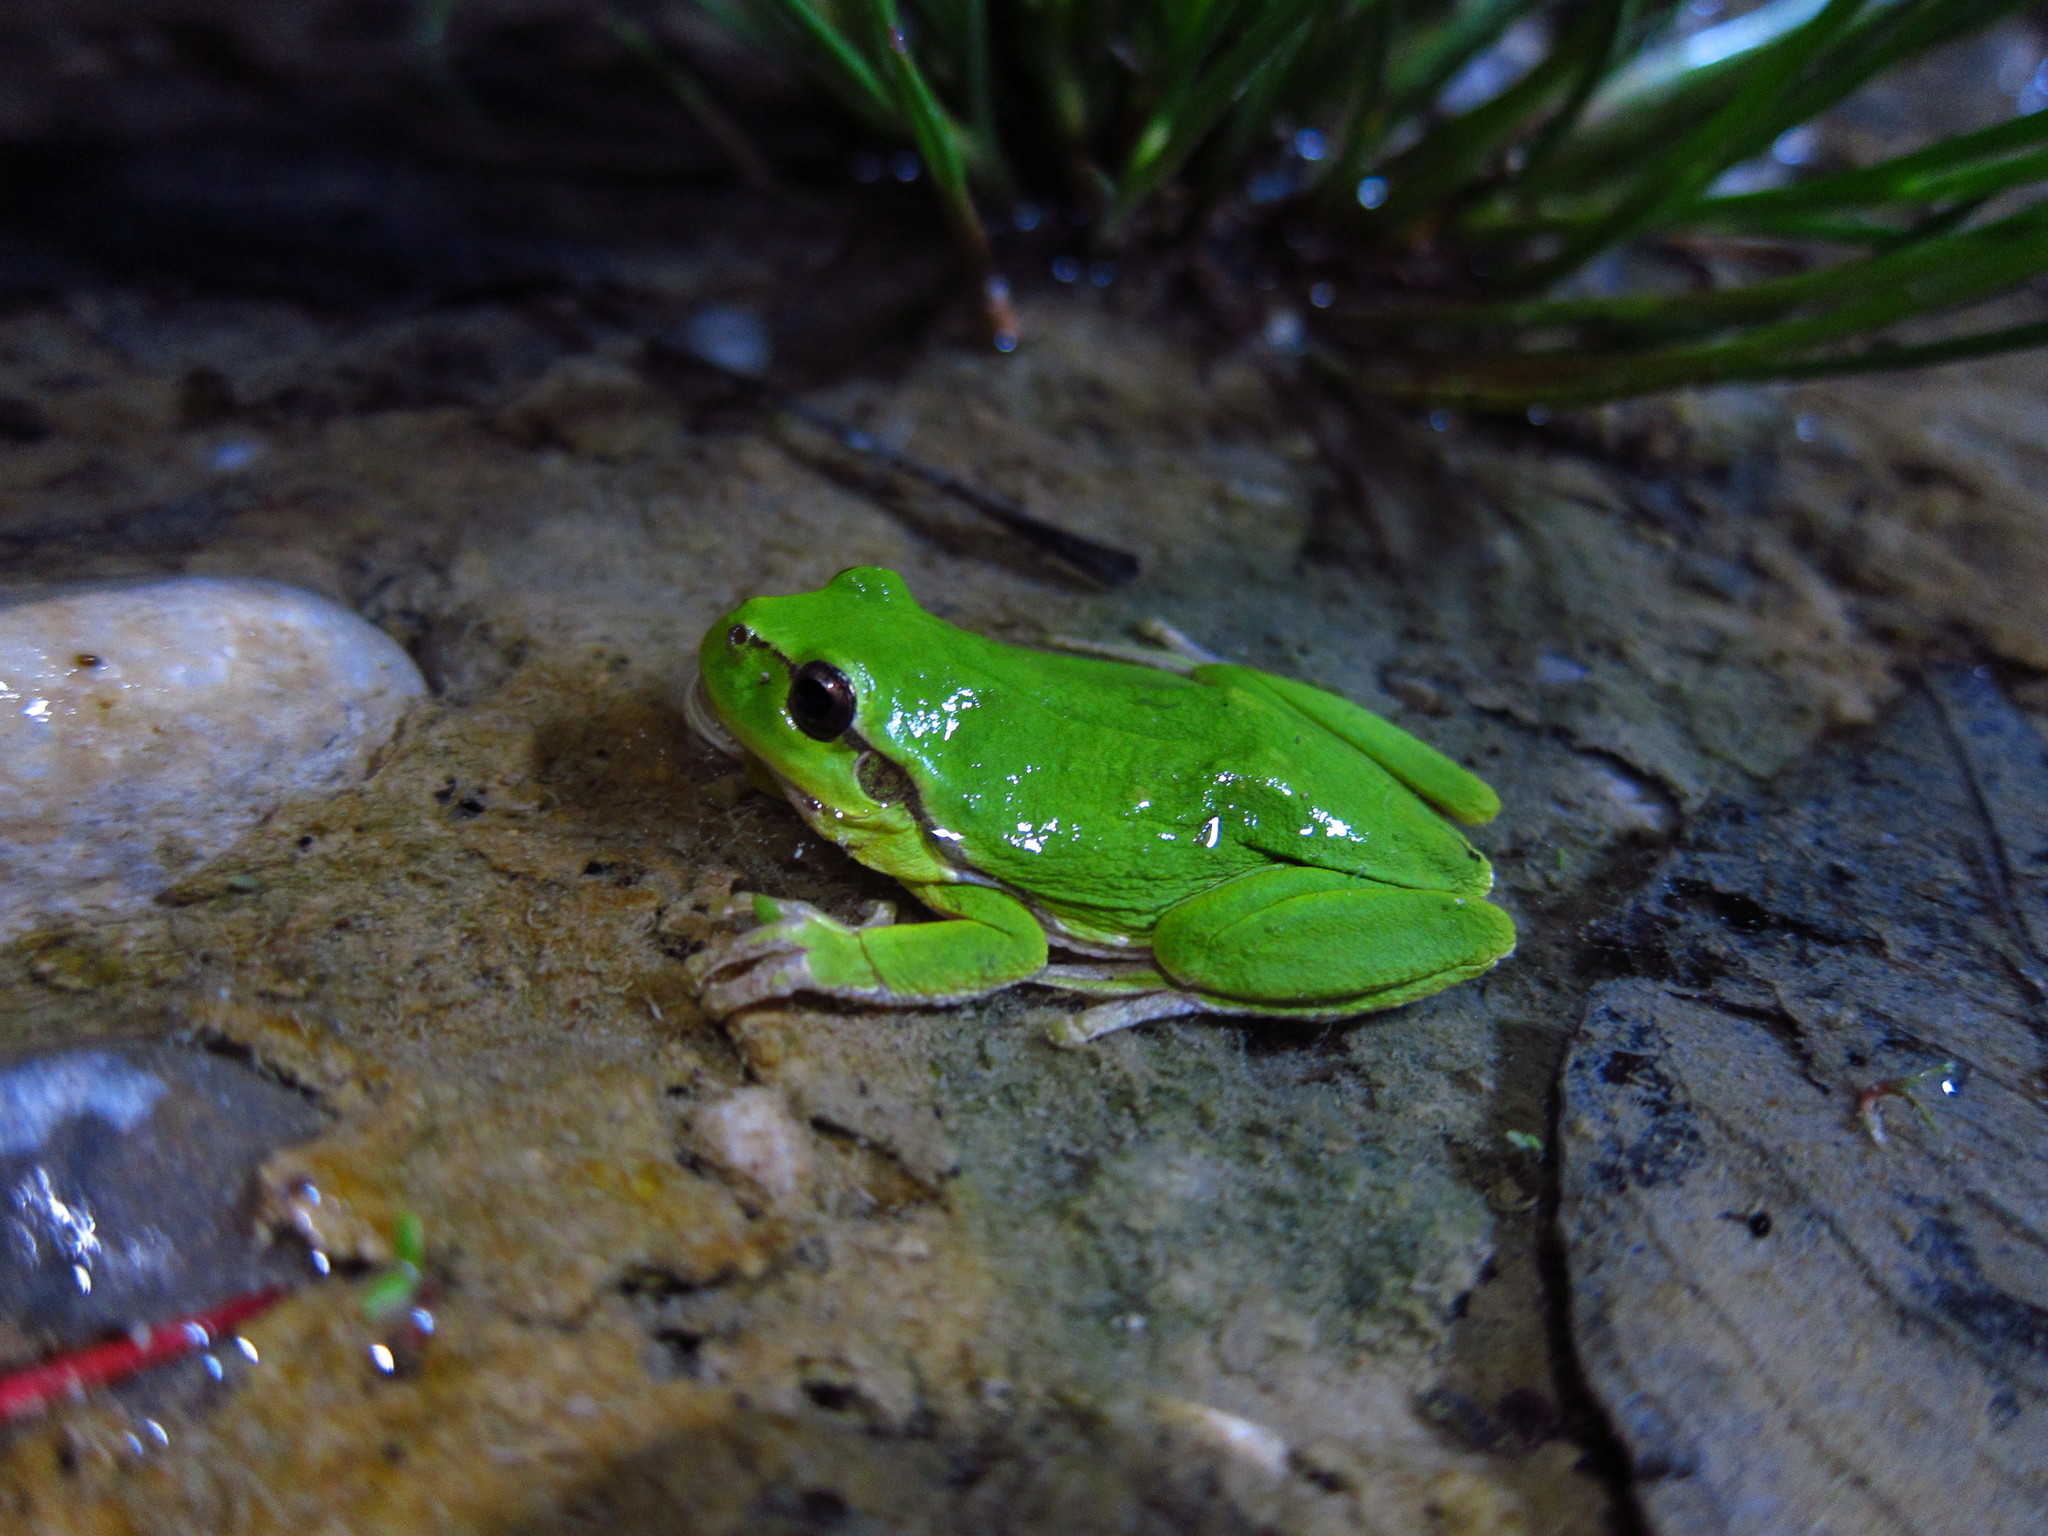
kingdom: Animalia
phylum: Chordata
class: Amphibia
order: Anura
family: Hylidae
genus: Hyla
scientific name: Hyla arborea
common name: Common tree frog
